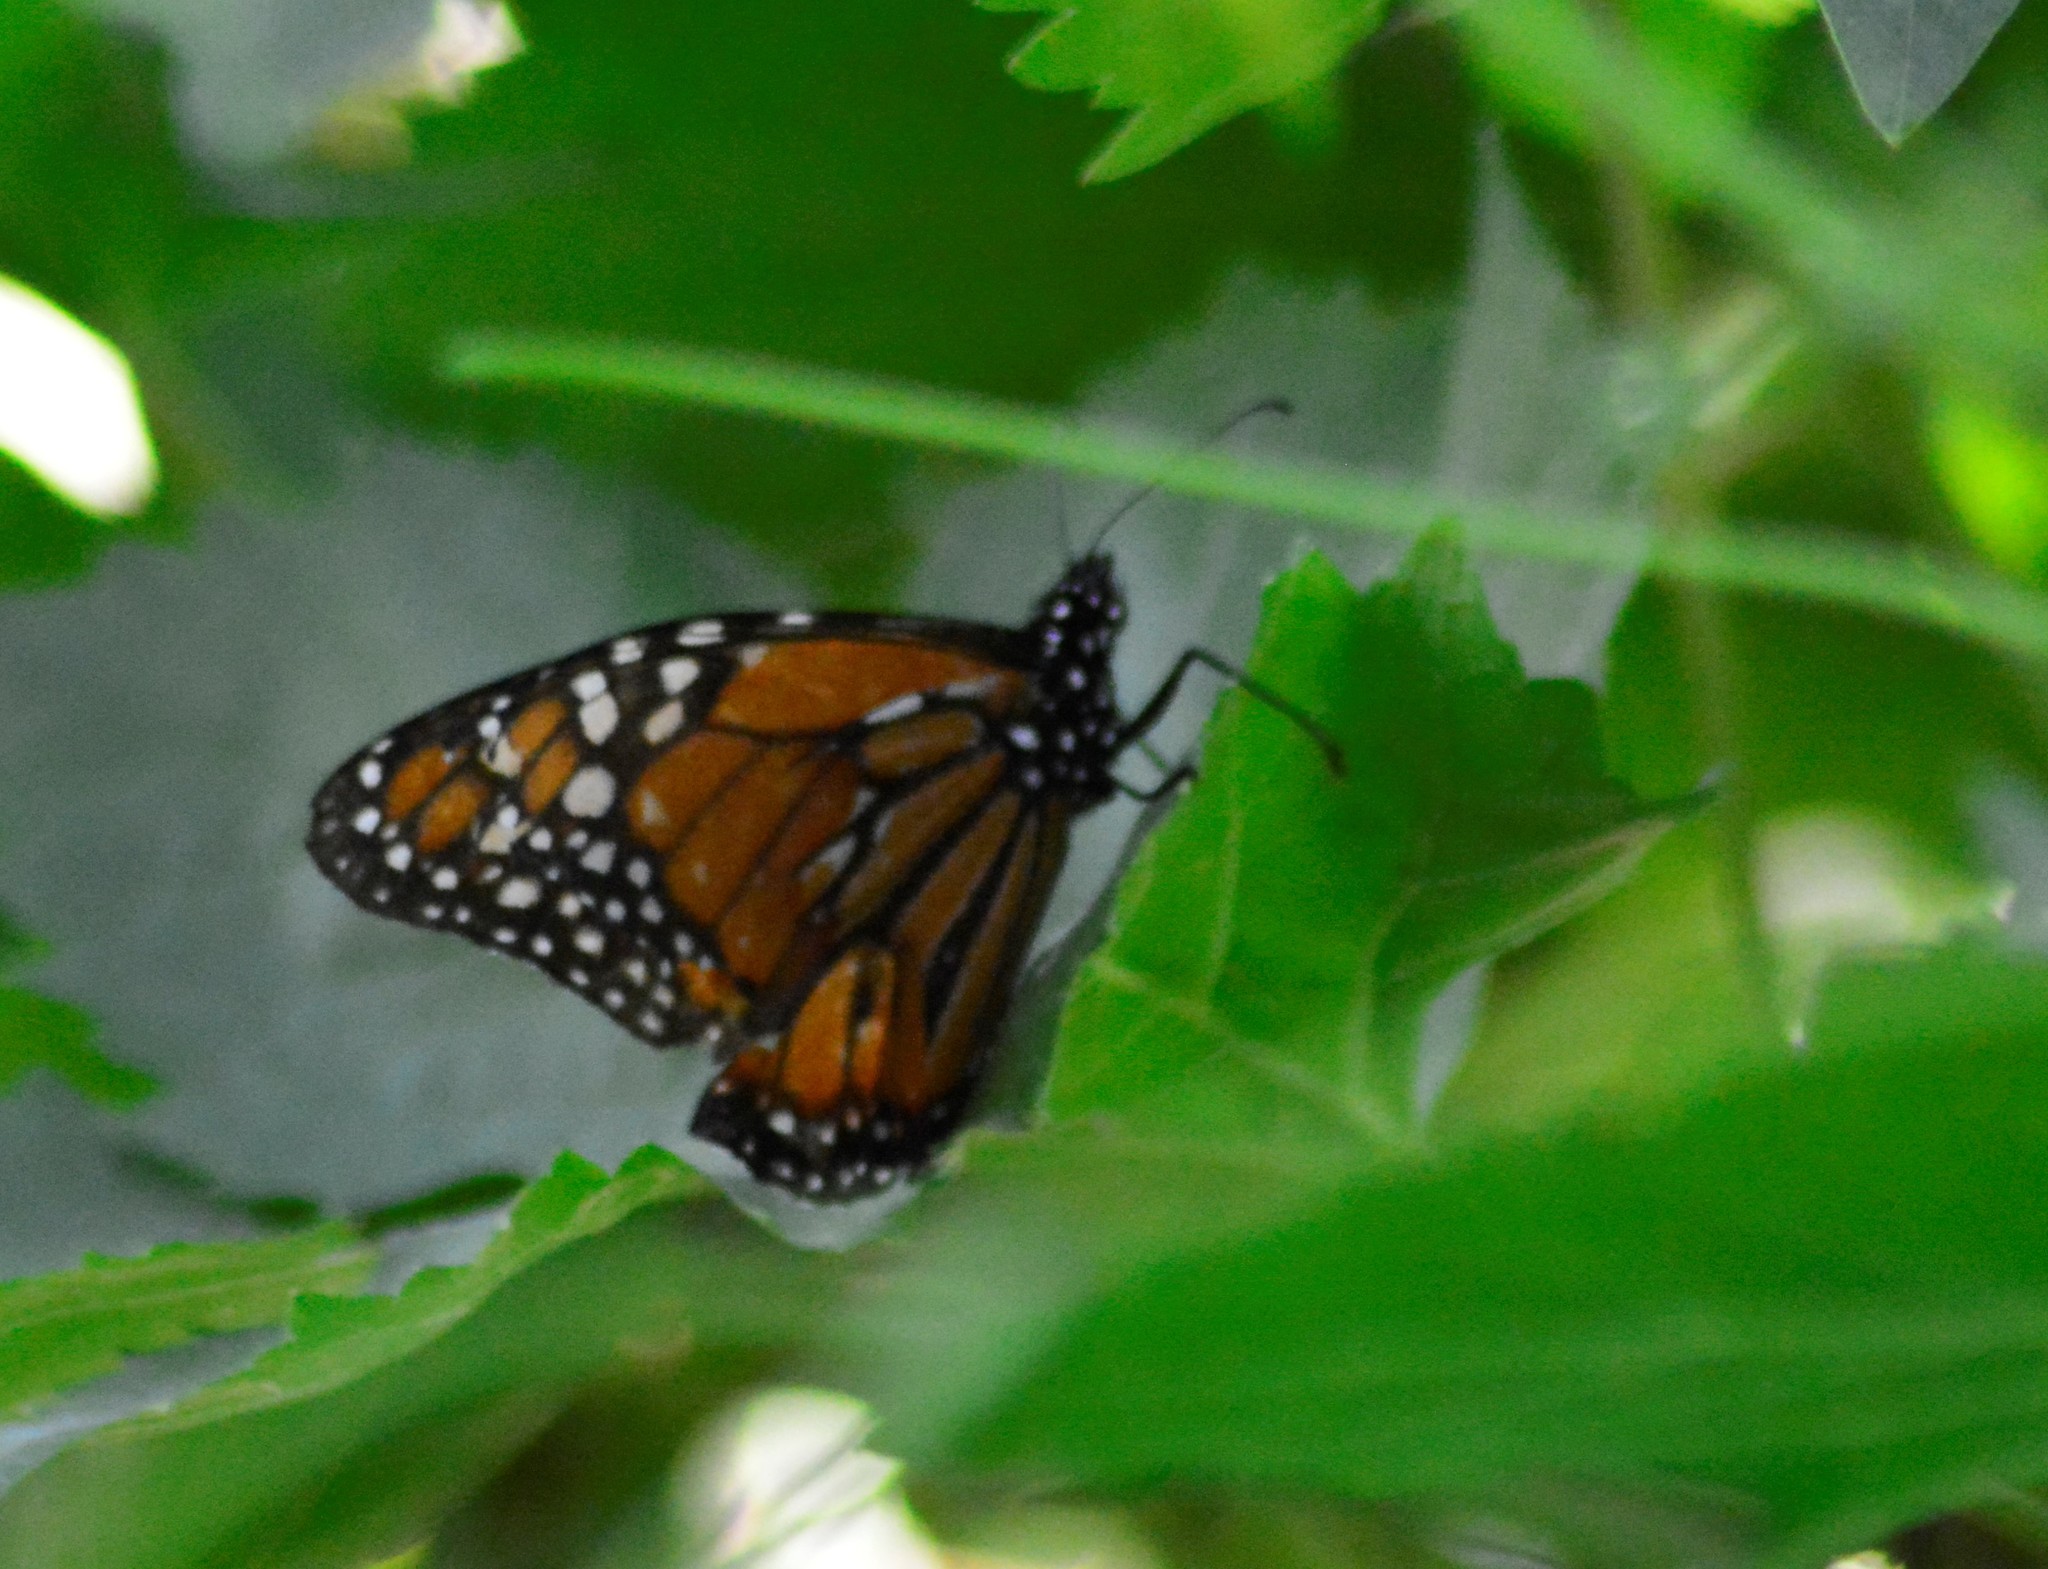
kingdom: Animalia
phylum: Arthropoda
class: Insecta
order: Lepidoptera
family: Nymphalidae
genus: Danaus
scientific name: Danaus erippus
